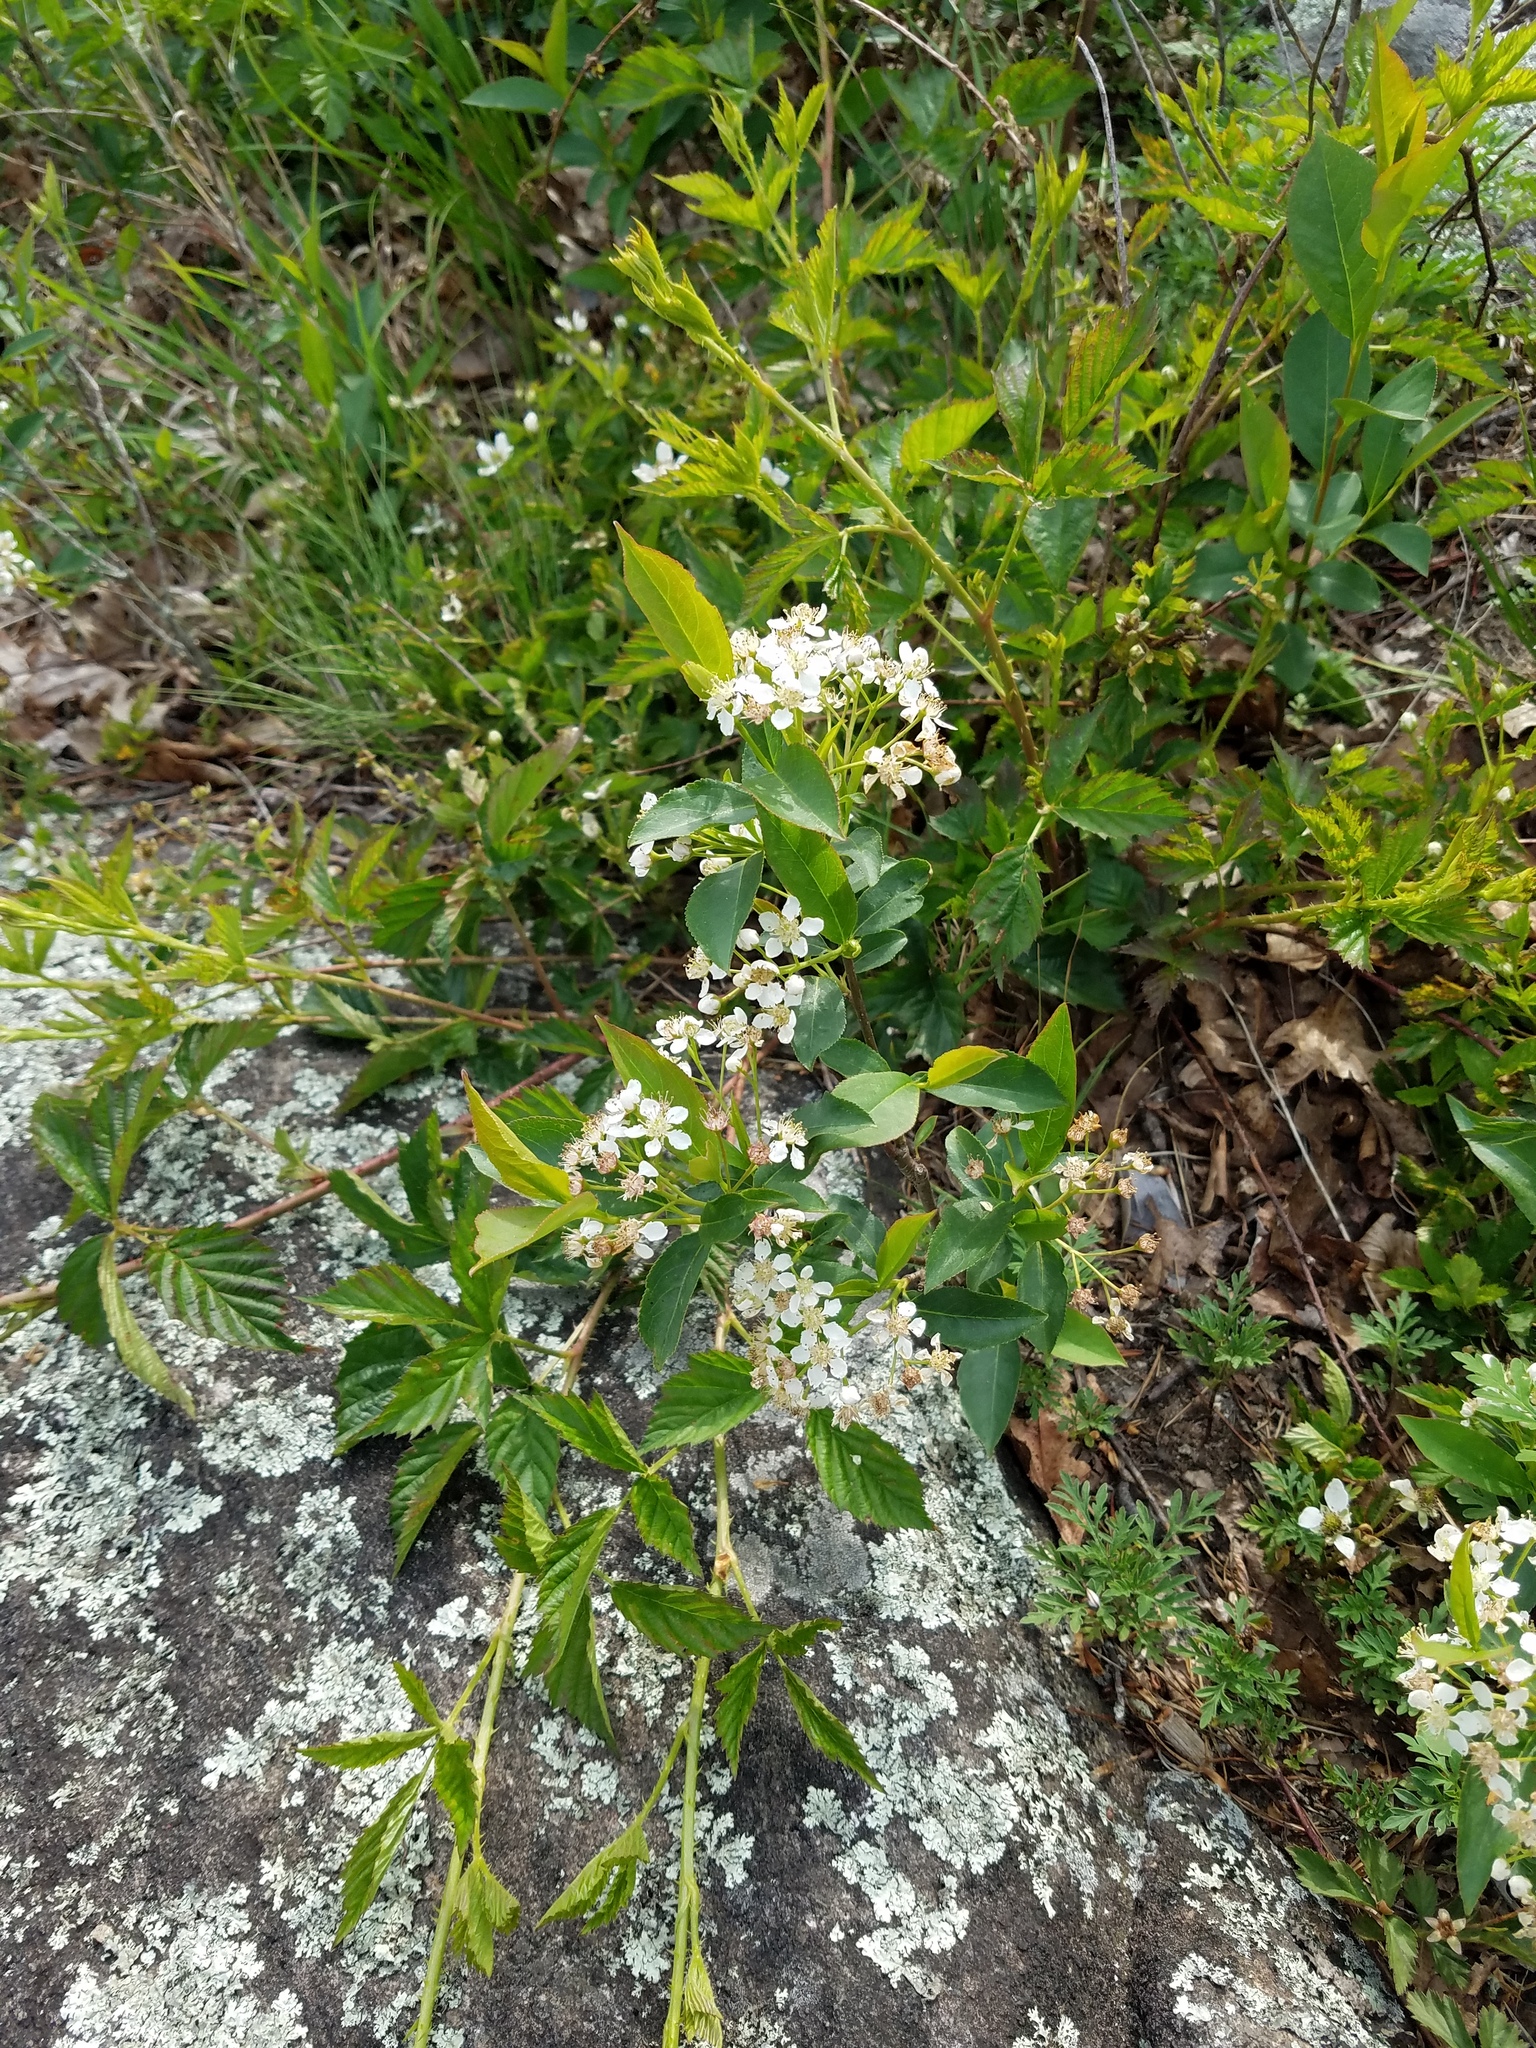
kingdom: Plantae
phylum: Tracheophyta
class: Magnoliopsida
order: Rosales
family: Rosaceae
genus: Aronia
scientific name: Aronia melanocarpa
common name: Black chokeberry
